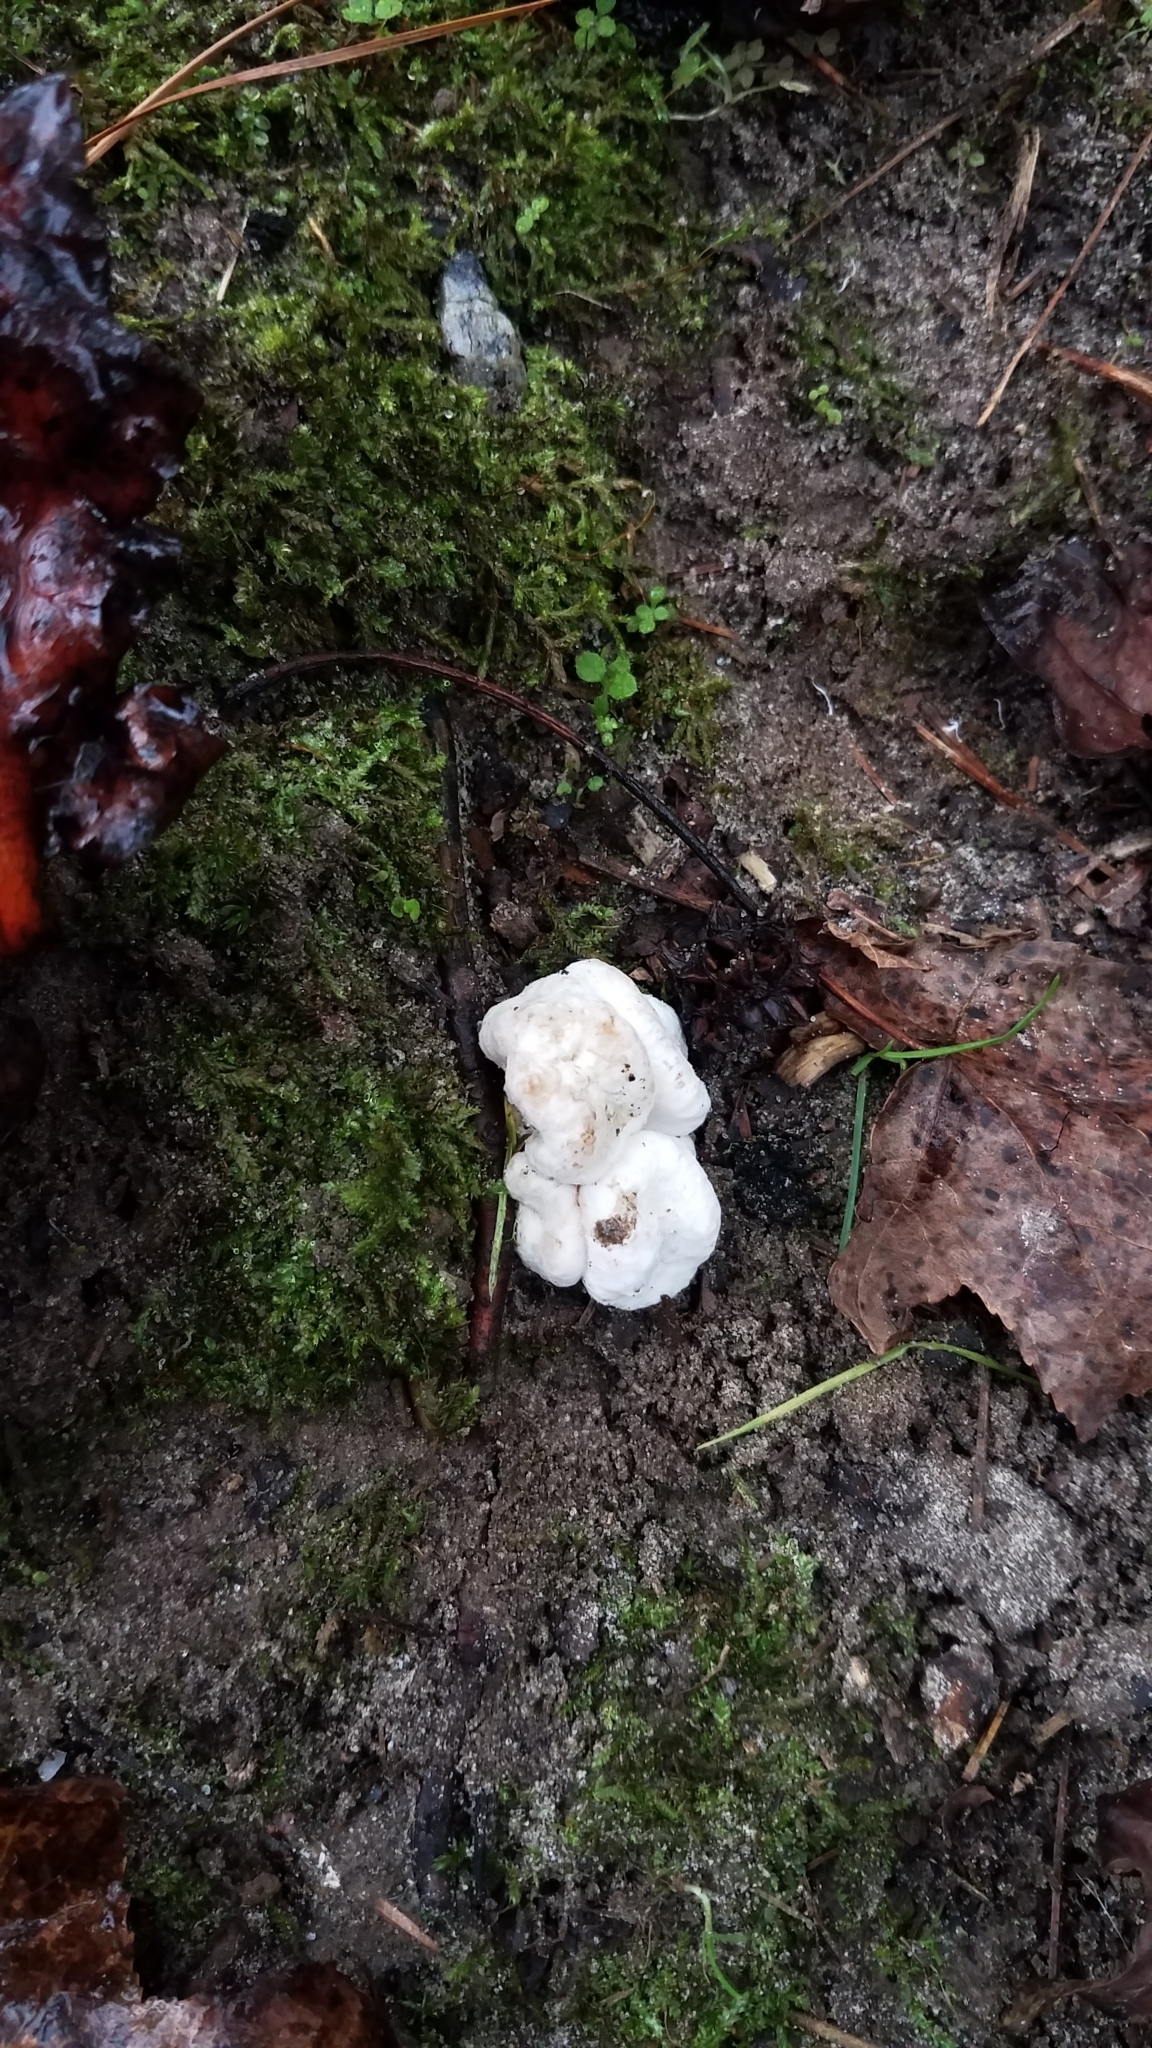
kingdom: Fungi
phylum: Basidiomycota
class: Agaricomycetes
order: Agaricales
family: Entolomataceae
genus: Entoloma
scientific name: Entoloma abortivum
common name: Aborted entoloma
